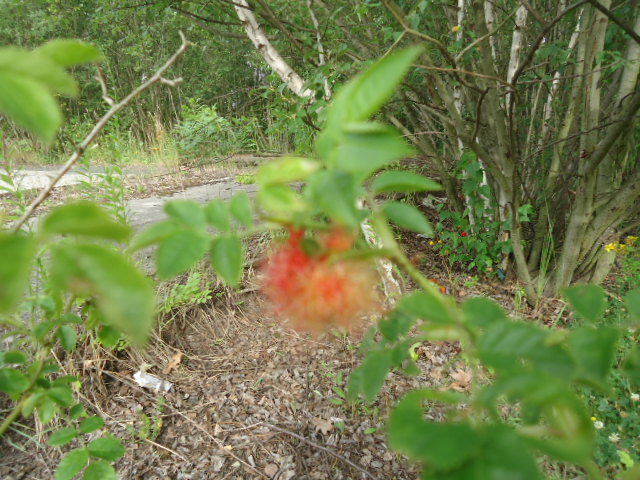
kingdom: Animalia
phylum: Arthropoda
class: Insecta
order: Hymenoptera
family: Cynipidae
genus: Diplolepis
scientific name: Diplolepis rosae
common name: Bedeguar gall
